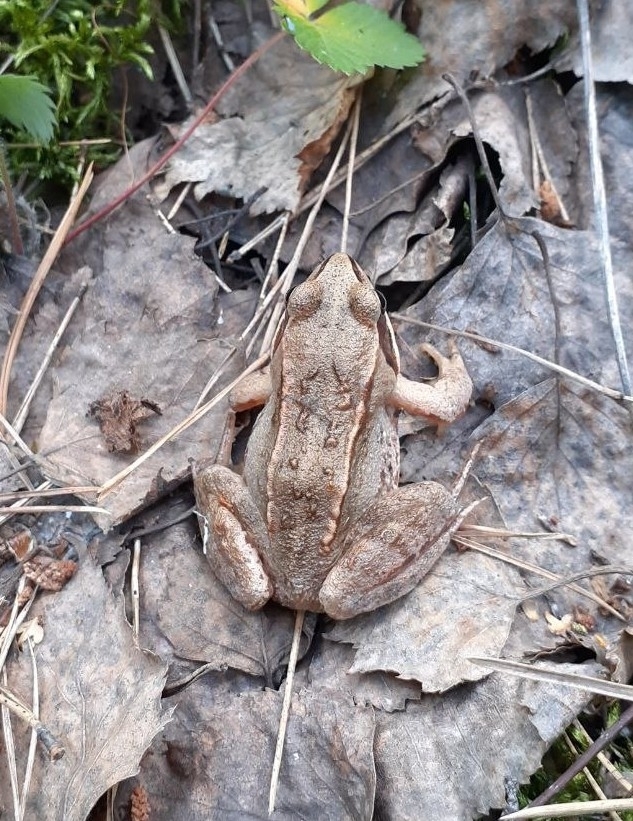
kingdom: Animalia
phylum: Chordata
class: Amphibia
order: Anura
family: Ranidae
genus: Rana
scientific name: Rana arvalis
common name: Moor frog
